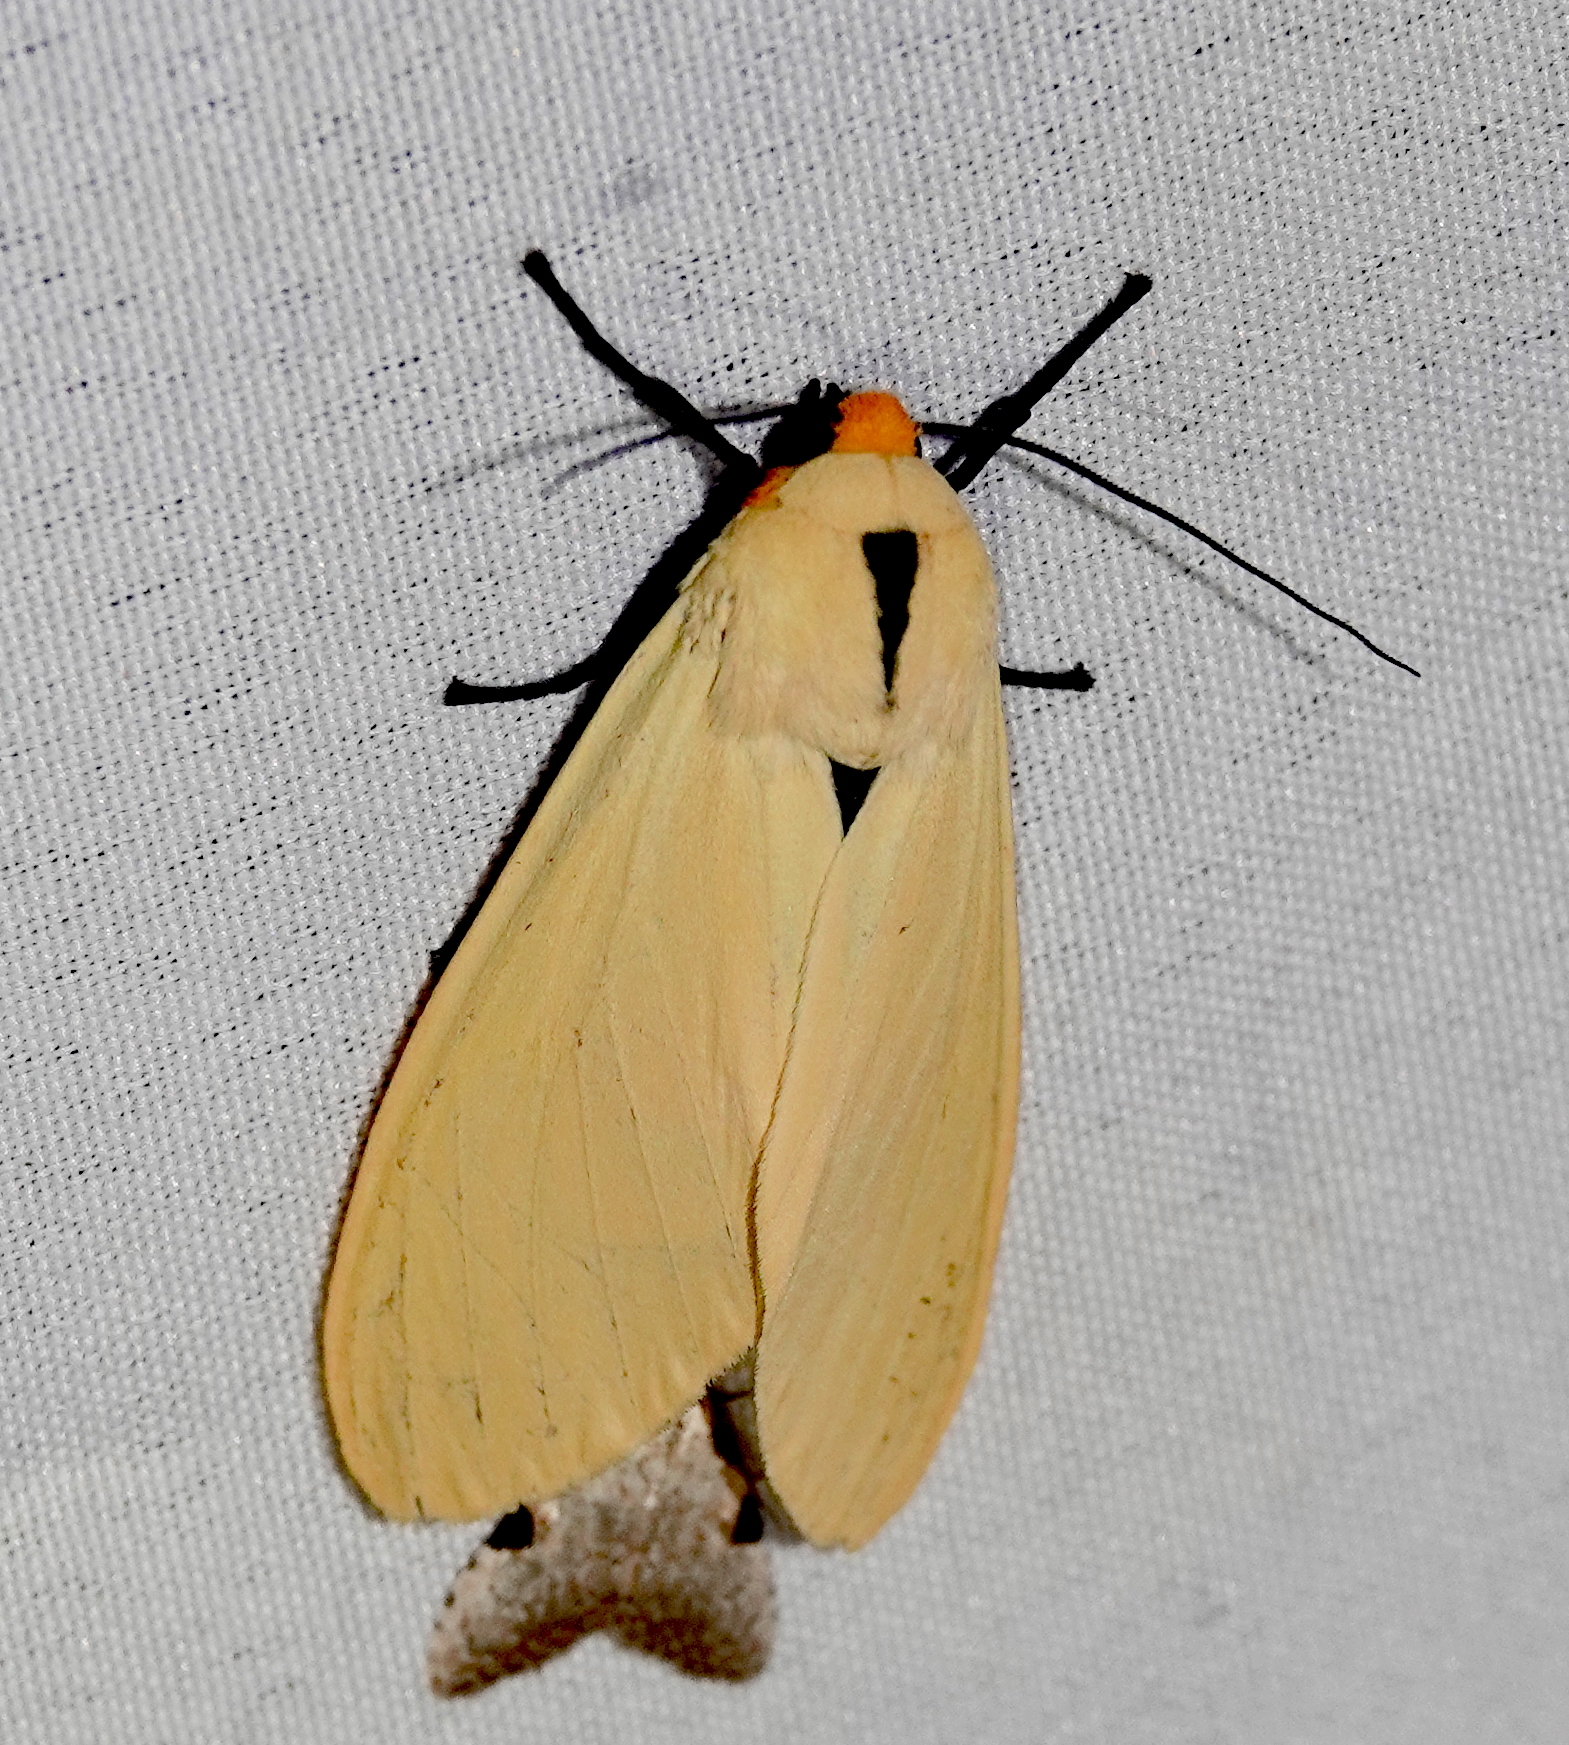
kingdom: Animalia
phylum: Arthropoda
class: Insecta
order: Lepidoptera
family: Erebidae
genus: Selenarctia
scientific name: Selenarctia pseudelissa
